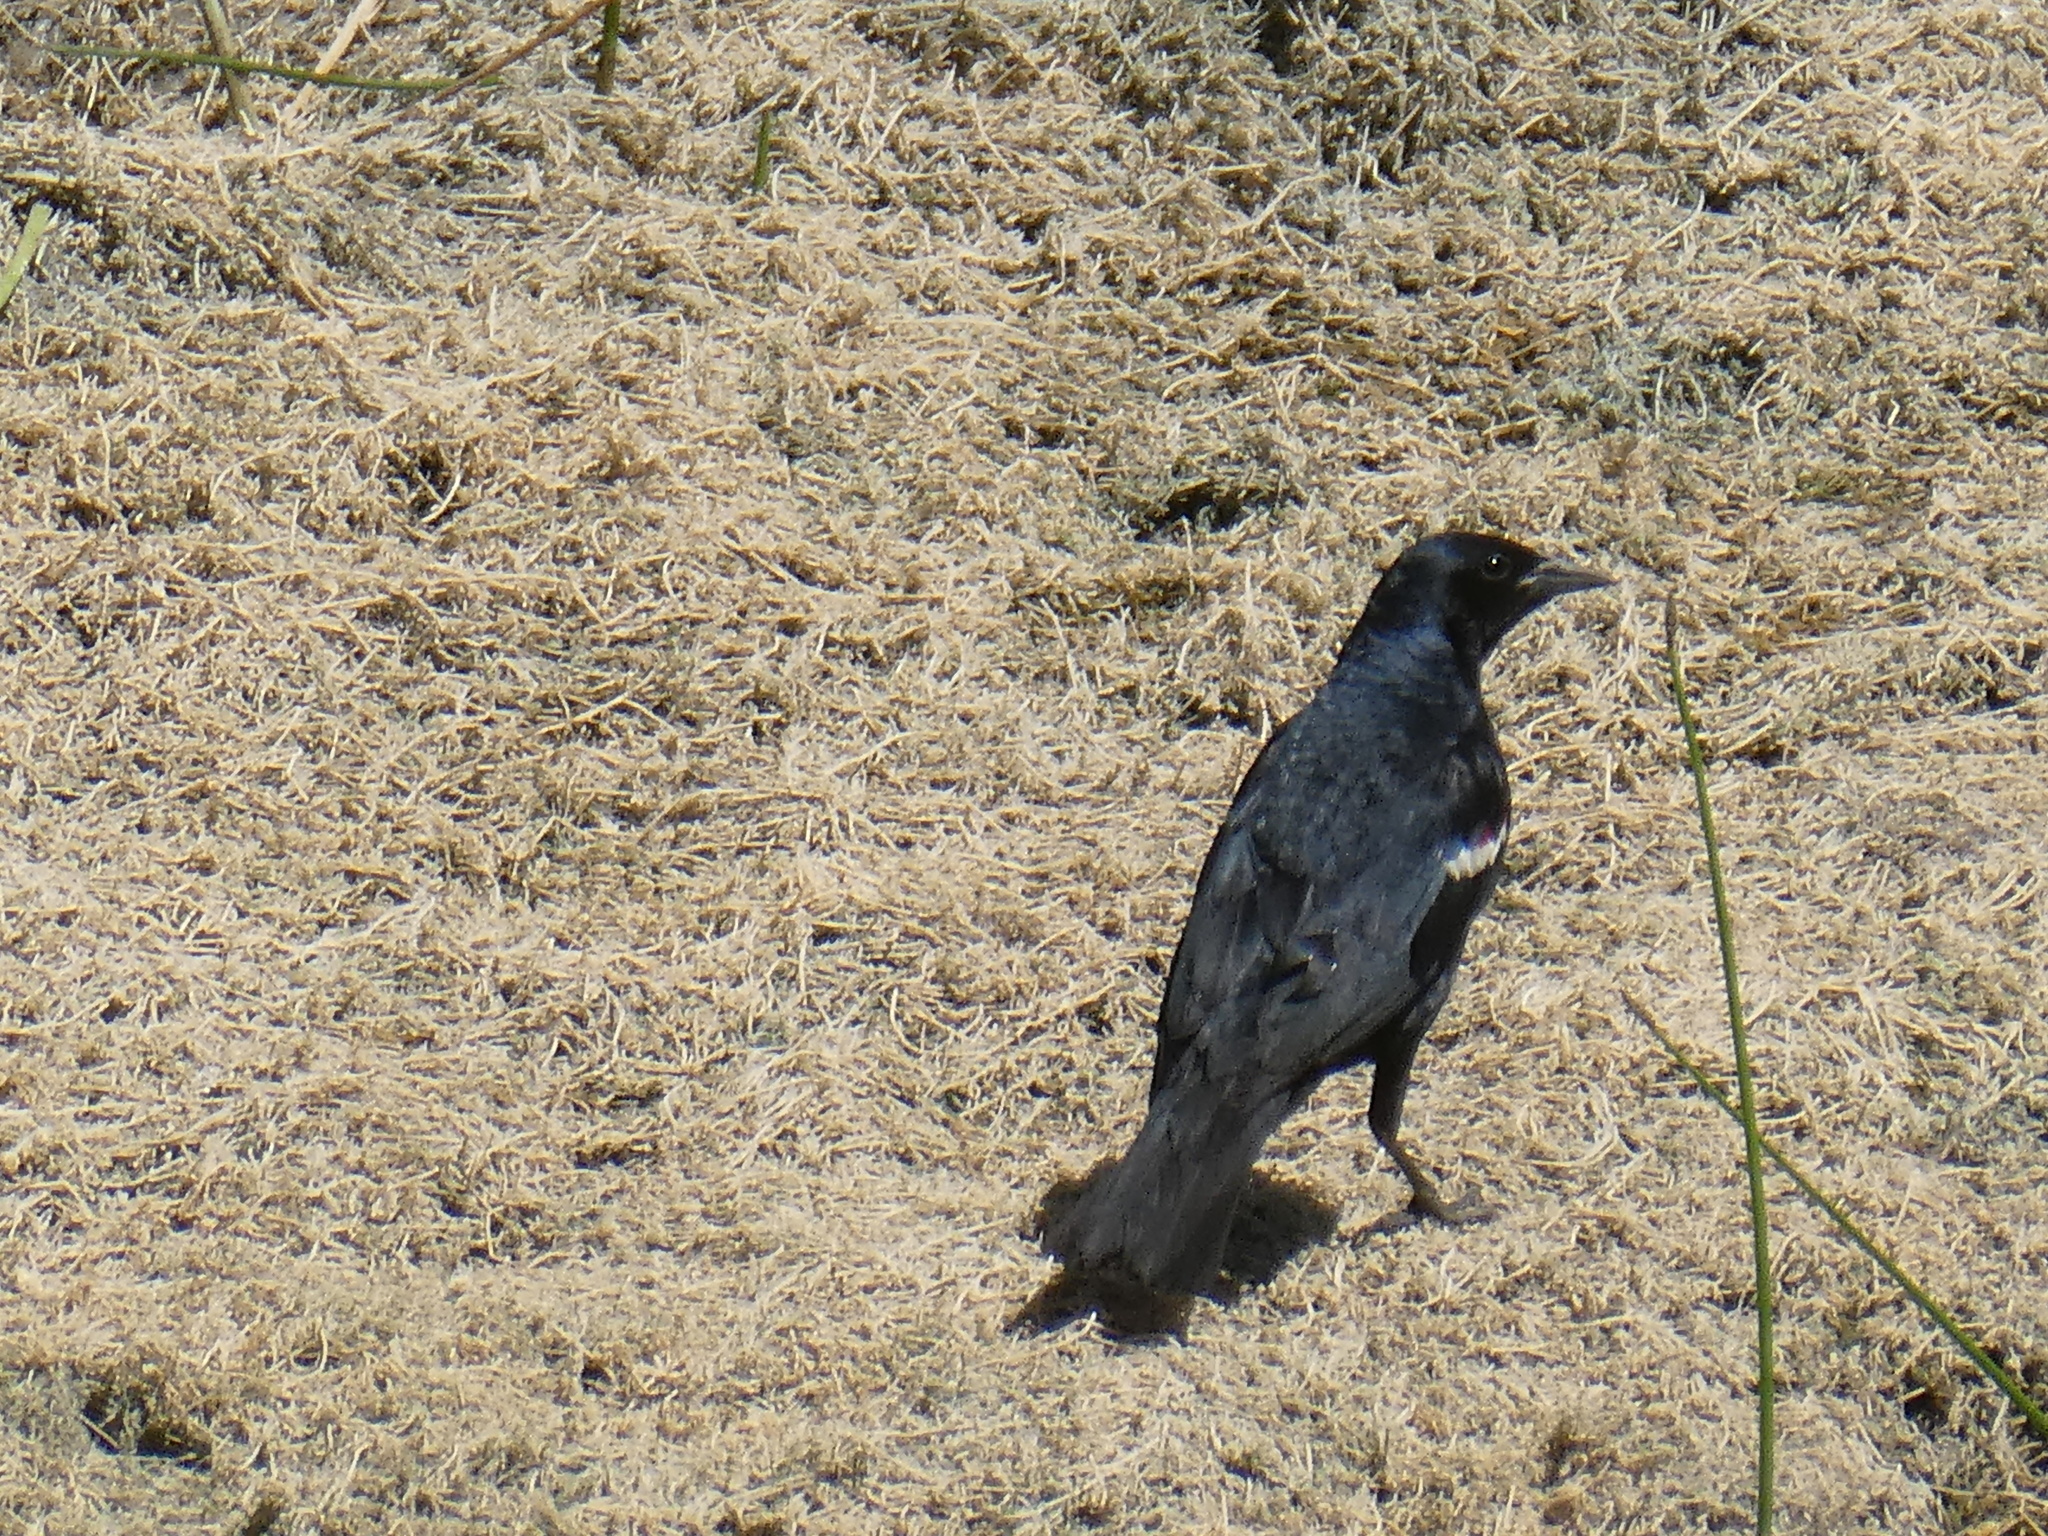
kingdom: Animalia
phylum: Chordata
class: Aves
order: Passeriformes
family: Icteridae
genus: Agelaius
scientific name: Agelaius tricolor
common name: Tricolored blackbird
